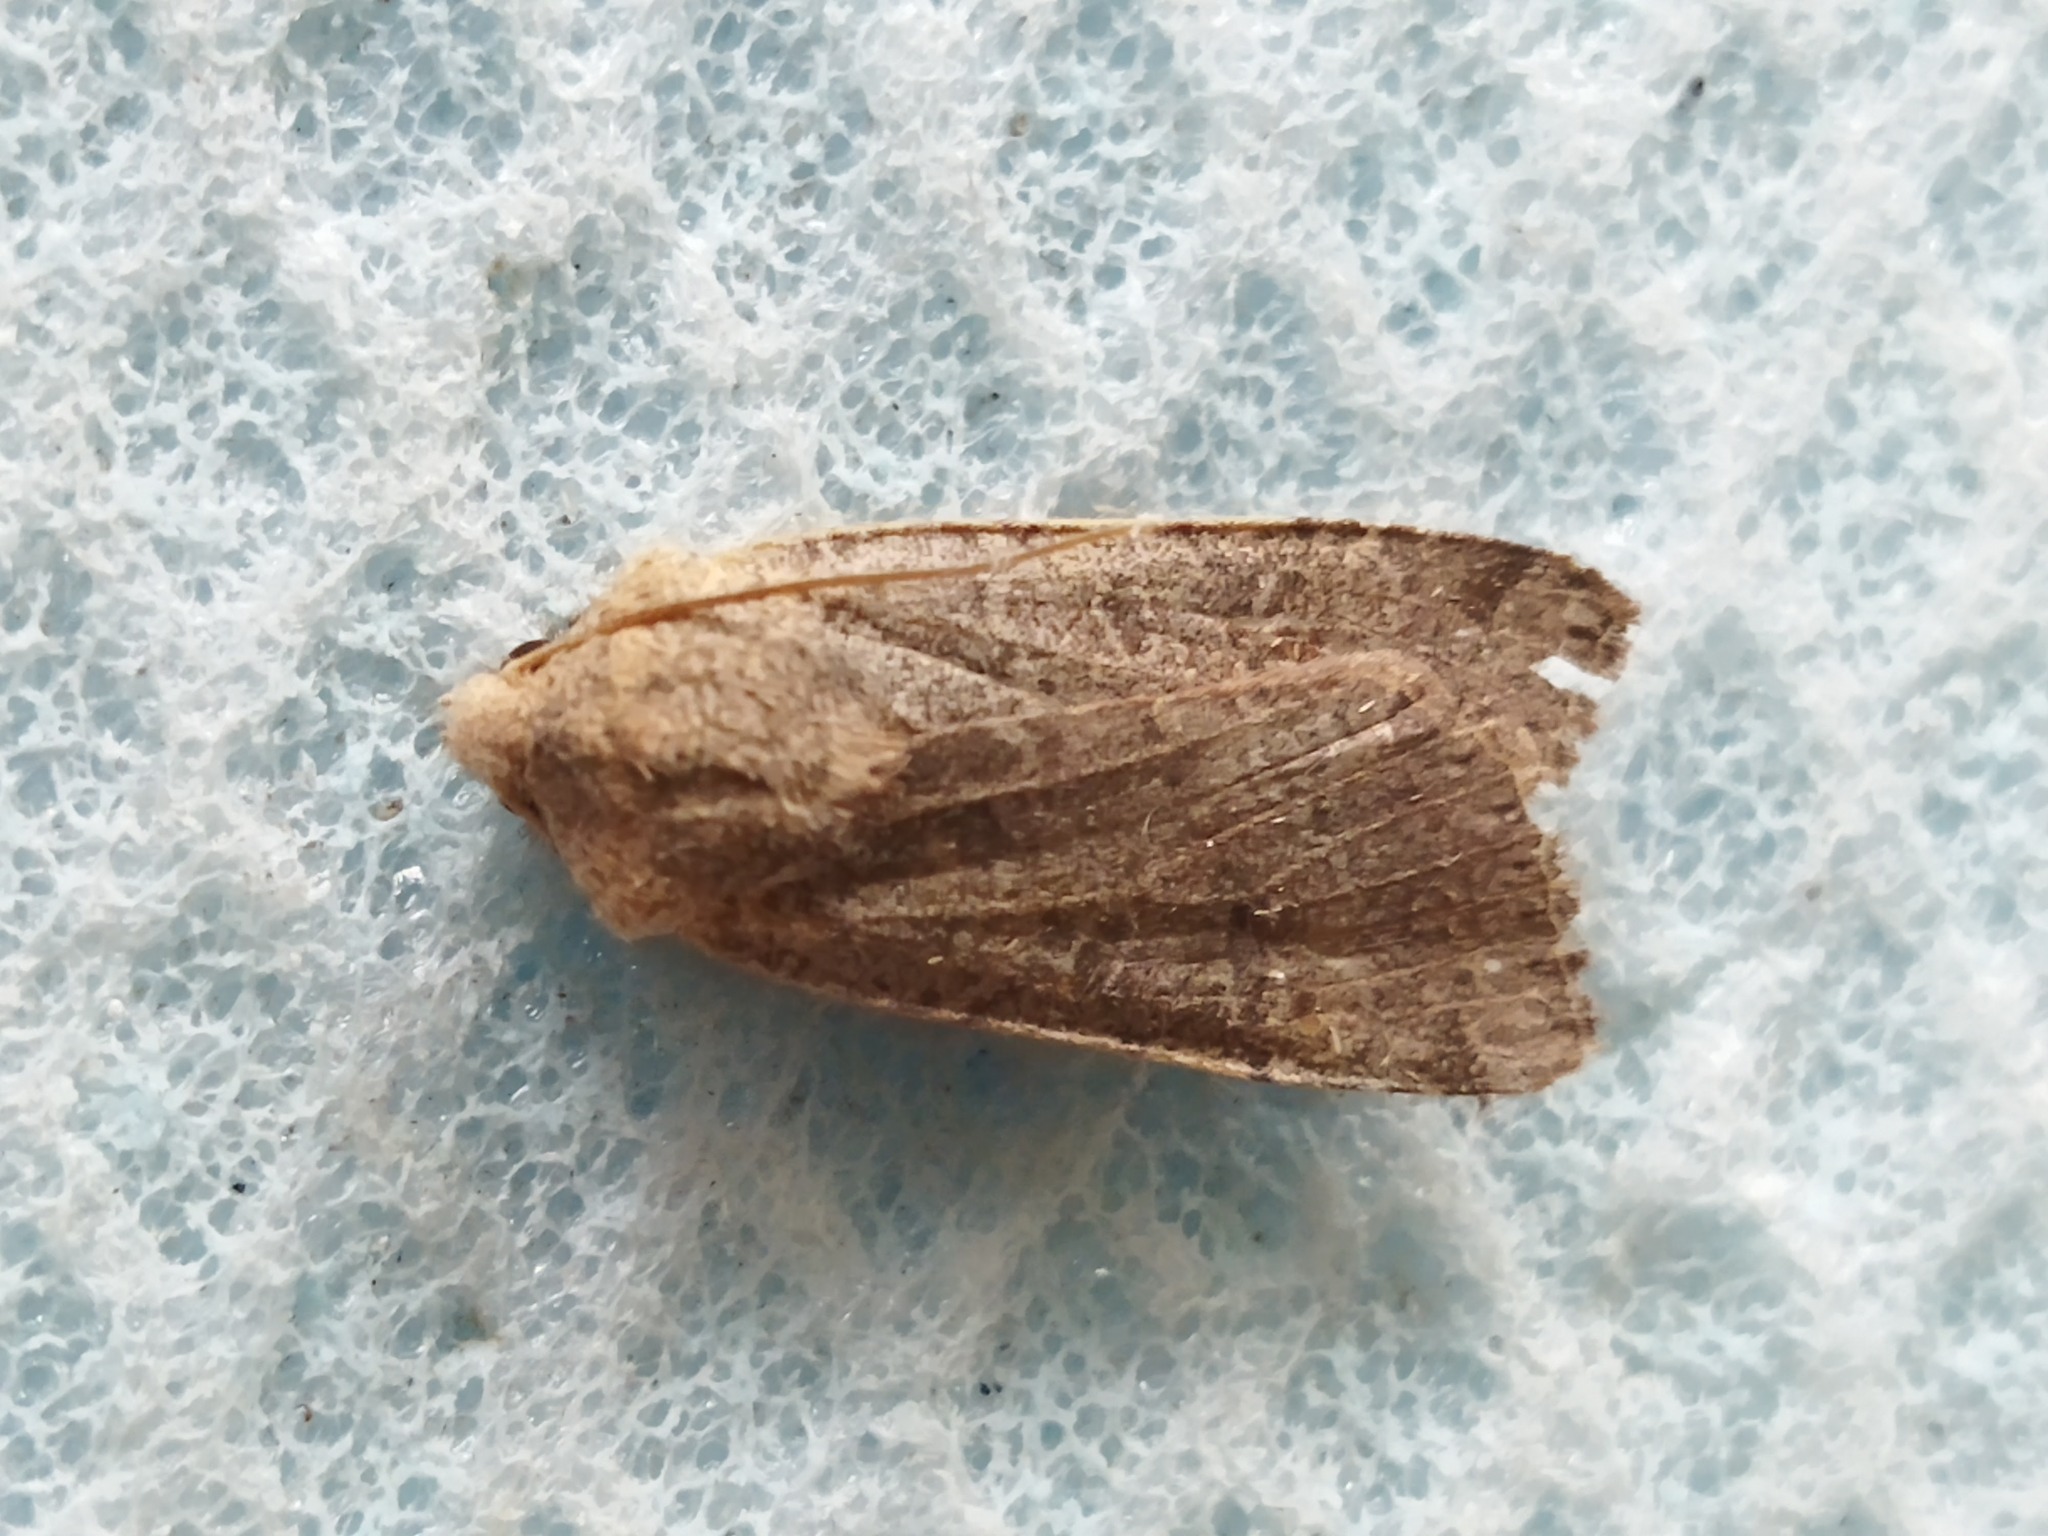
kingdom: Animalia
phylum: Arthropoda
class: Insecta
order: Lepidoptera
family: Noctuidae
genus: Agrochola
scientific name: Agrochola lychnidis
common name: Beaded chestnut
